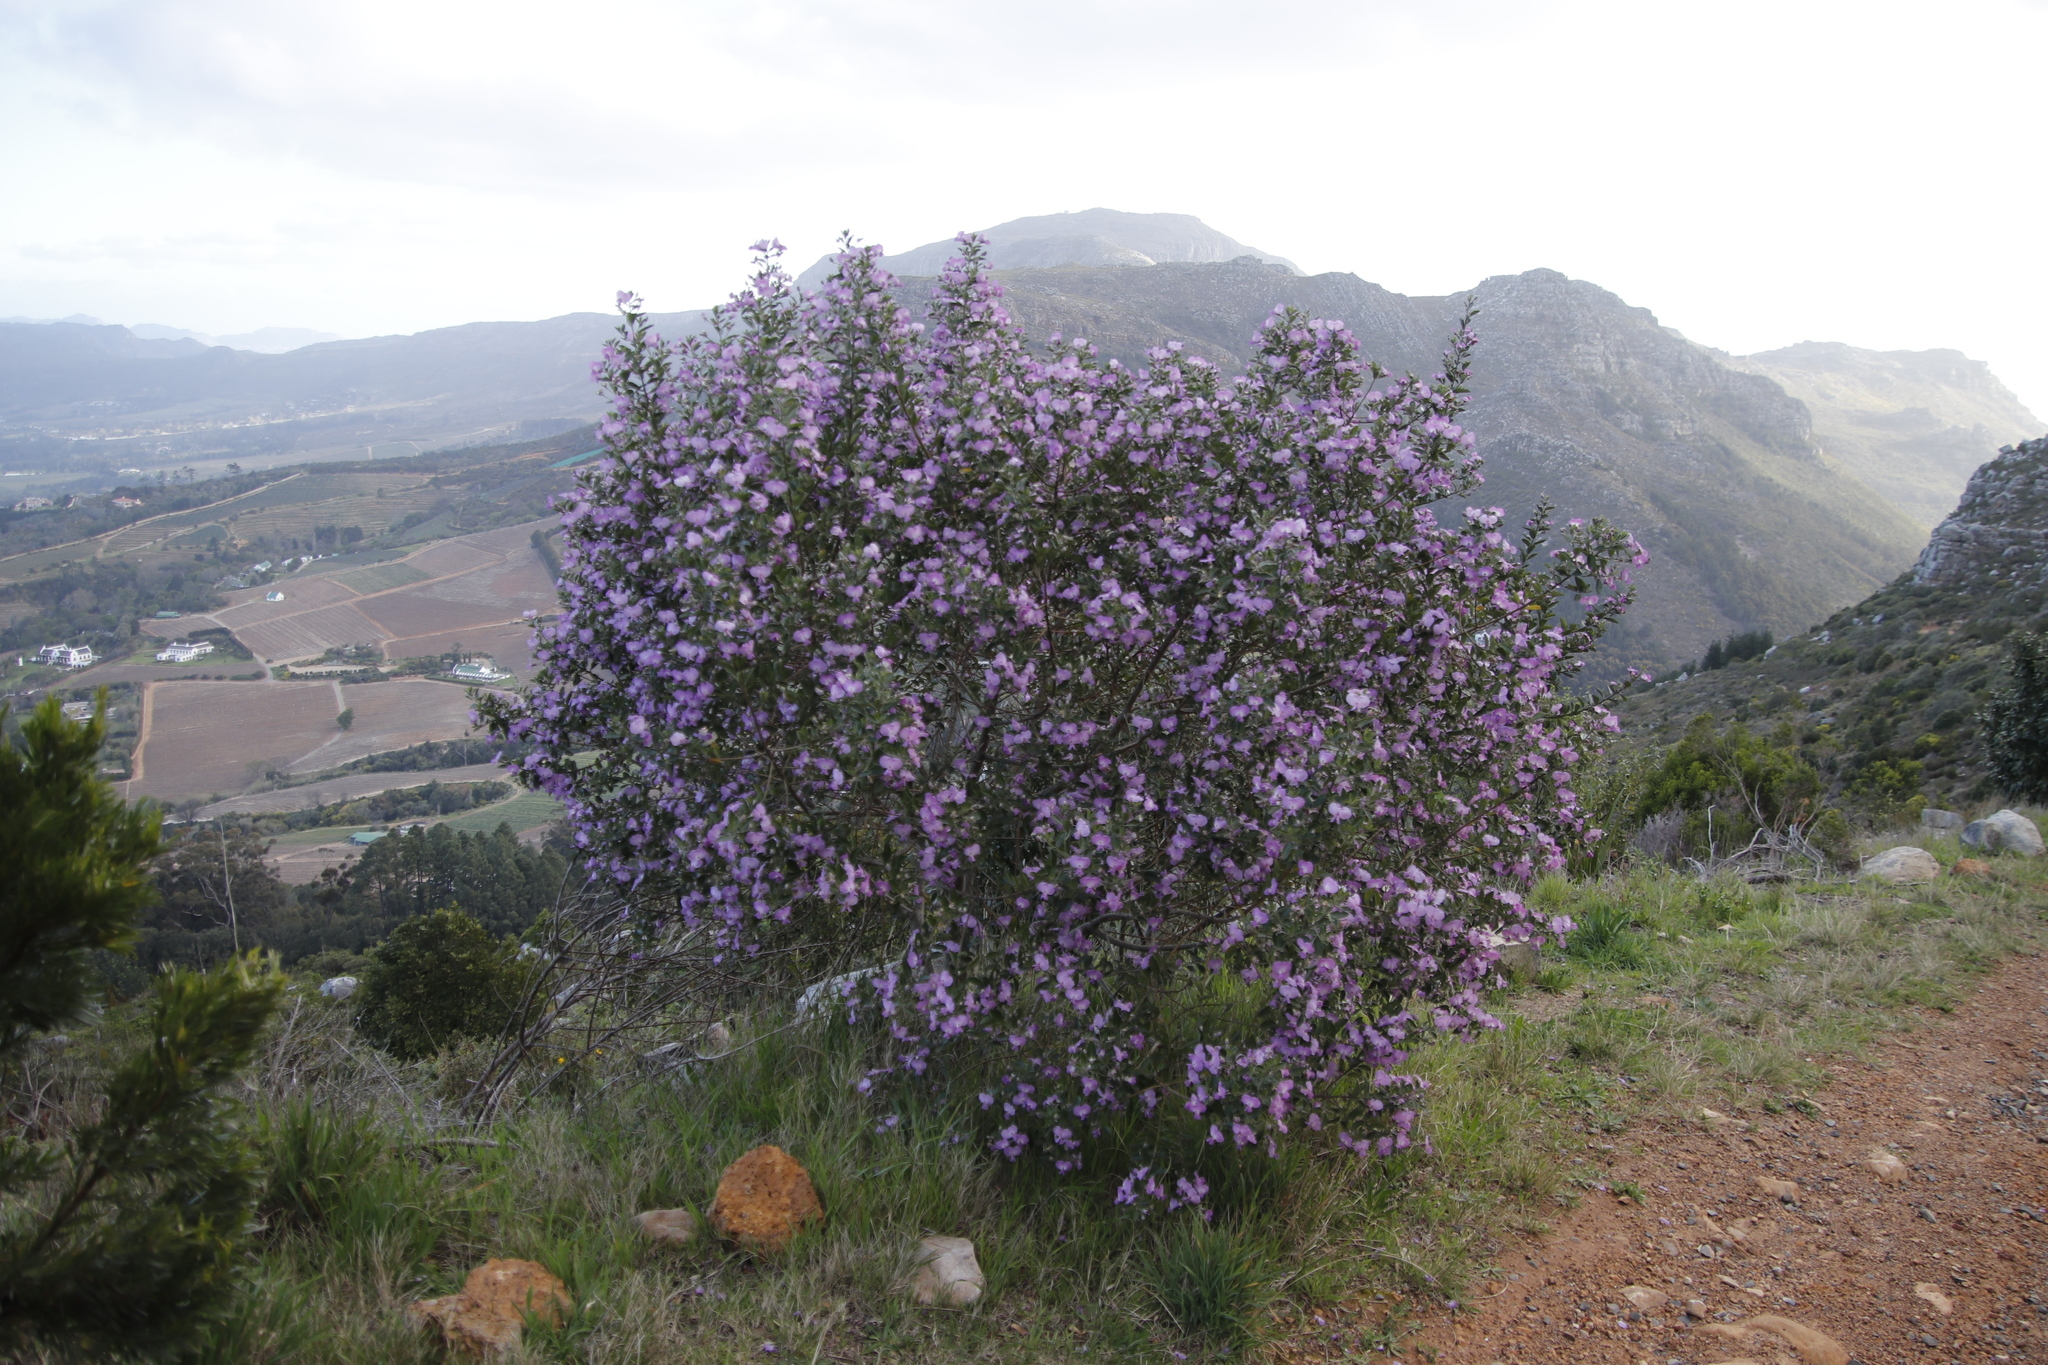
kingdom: Plantae
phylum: Tracheophyta
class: Magnoliopsida
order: Fabales
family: Fabaceae
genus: Podalyria
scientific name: Podalyria calyptrata
